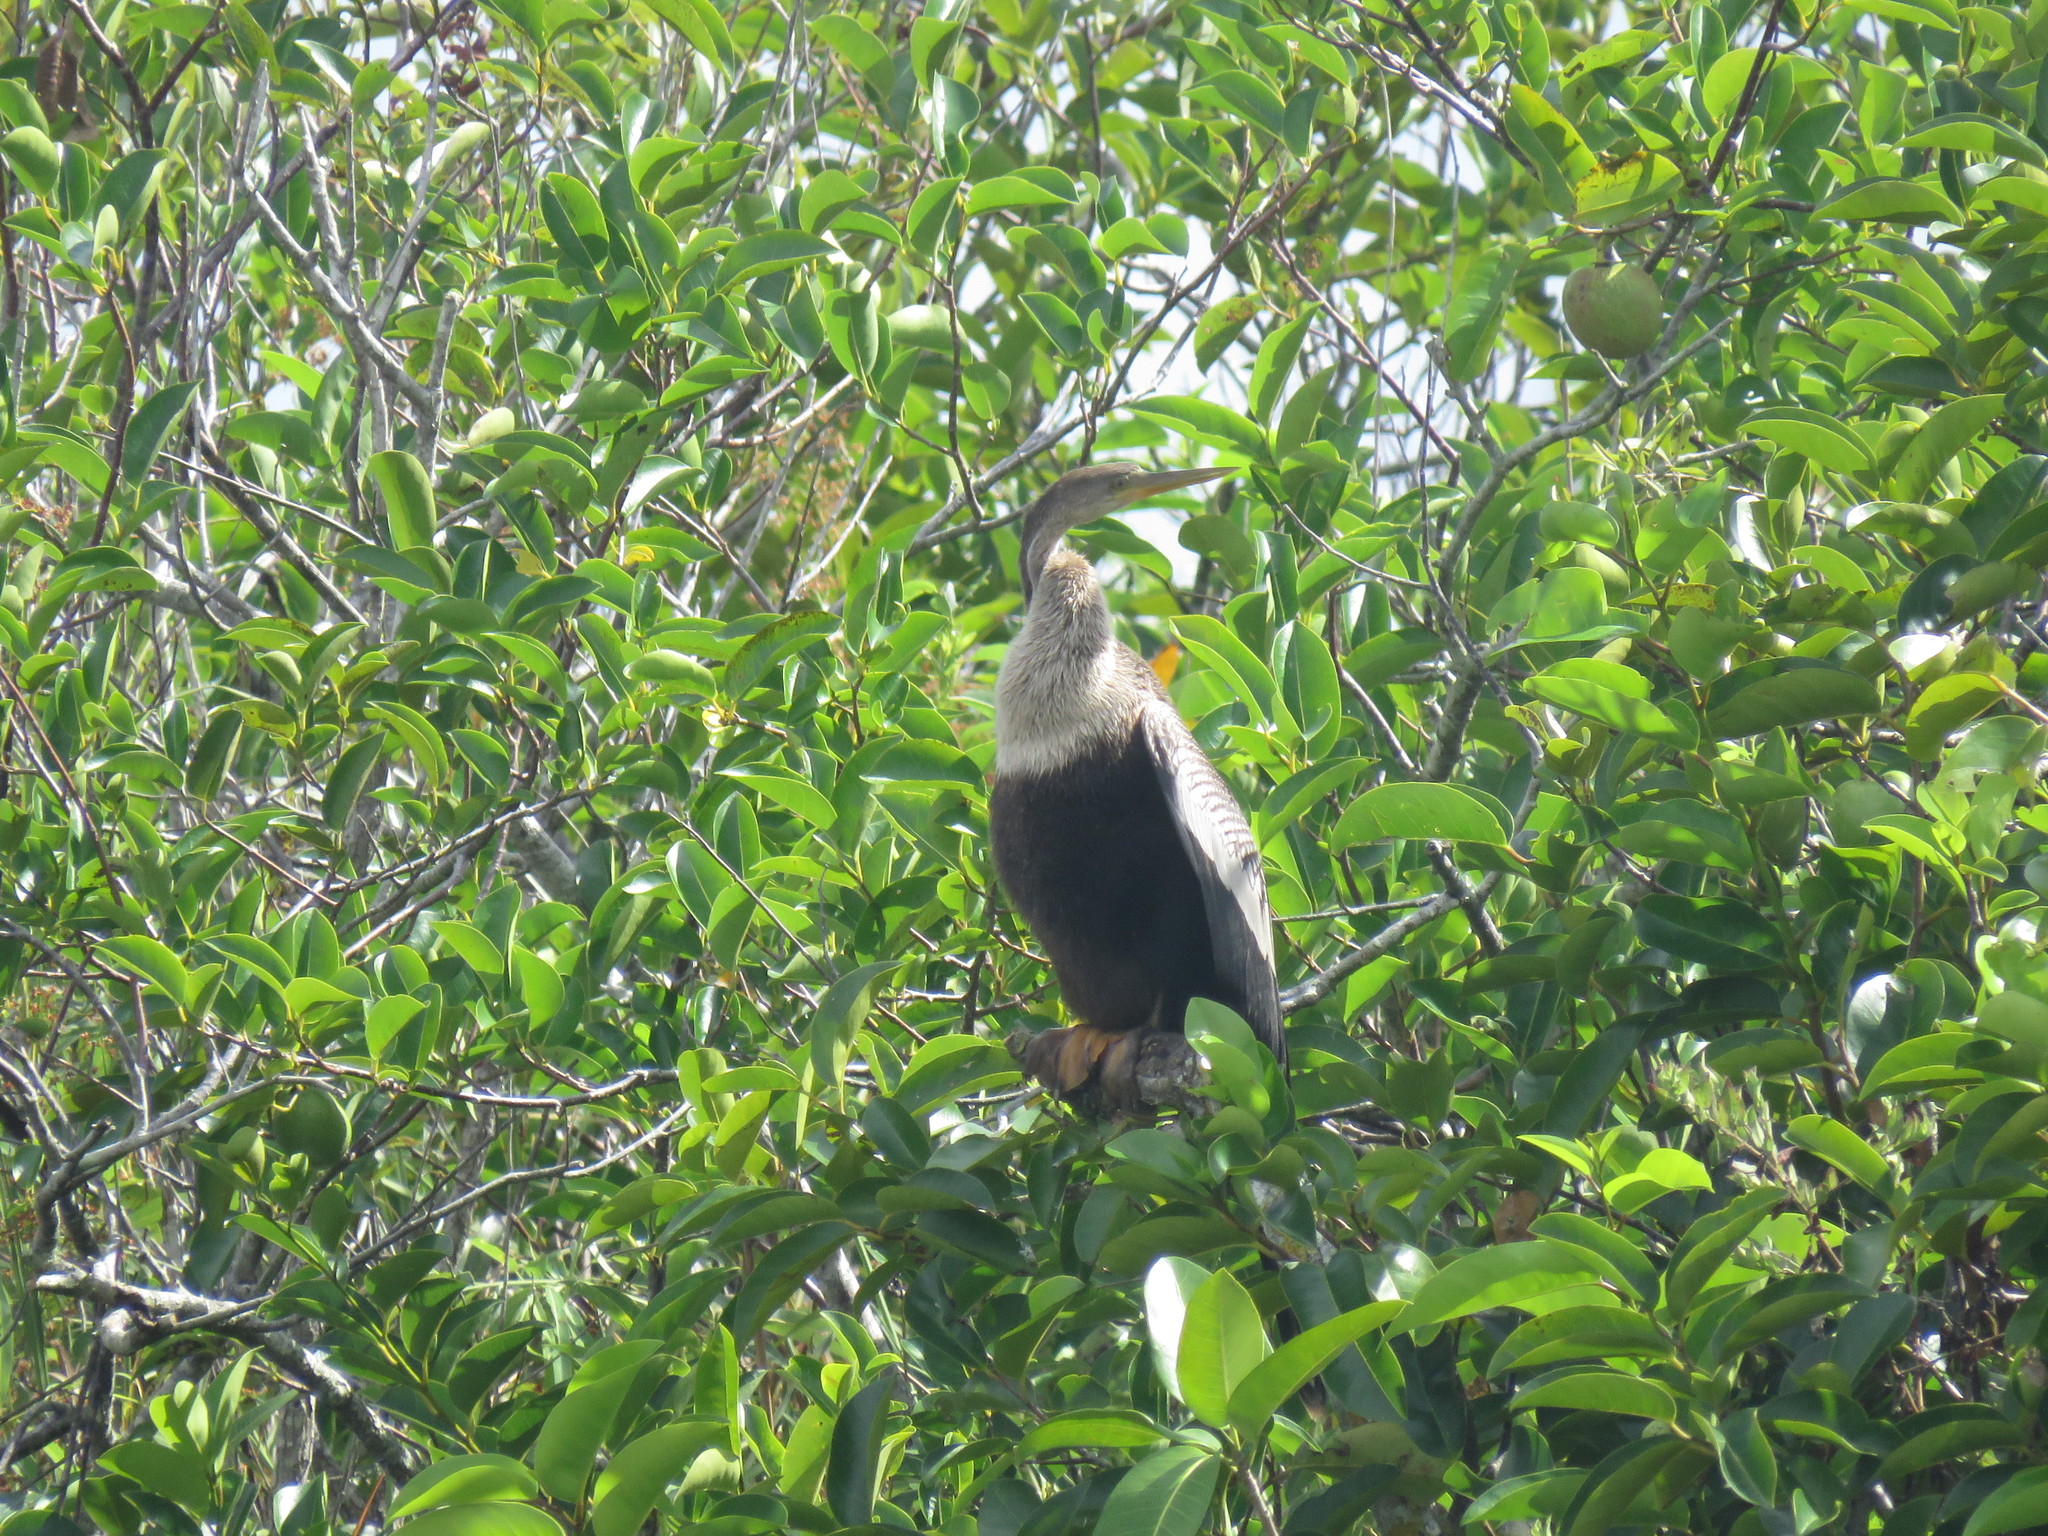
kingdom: Animalia
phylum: Chordata
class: Aves
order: Suliformes
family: Anhingidae
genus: Anhinga
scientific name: Anhinga anhinga
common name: Anhinga
